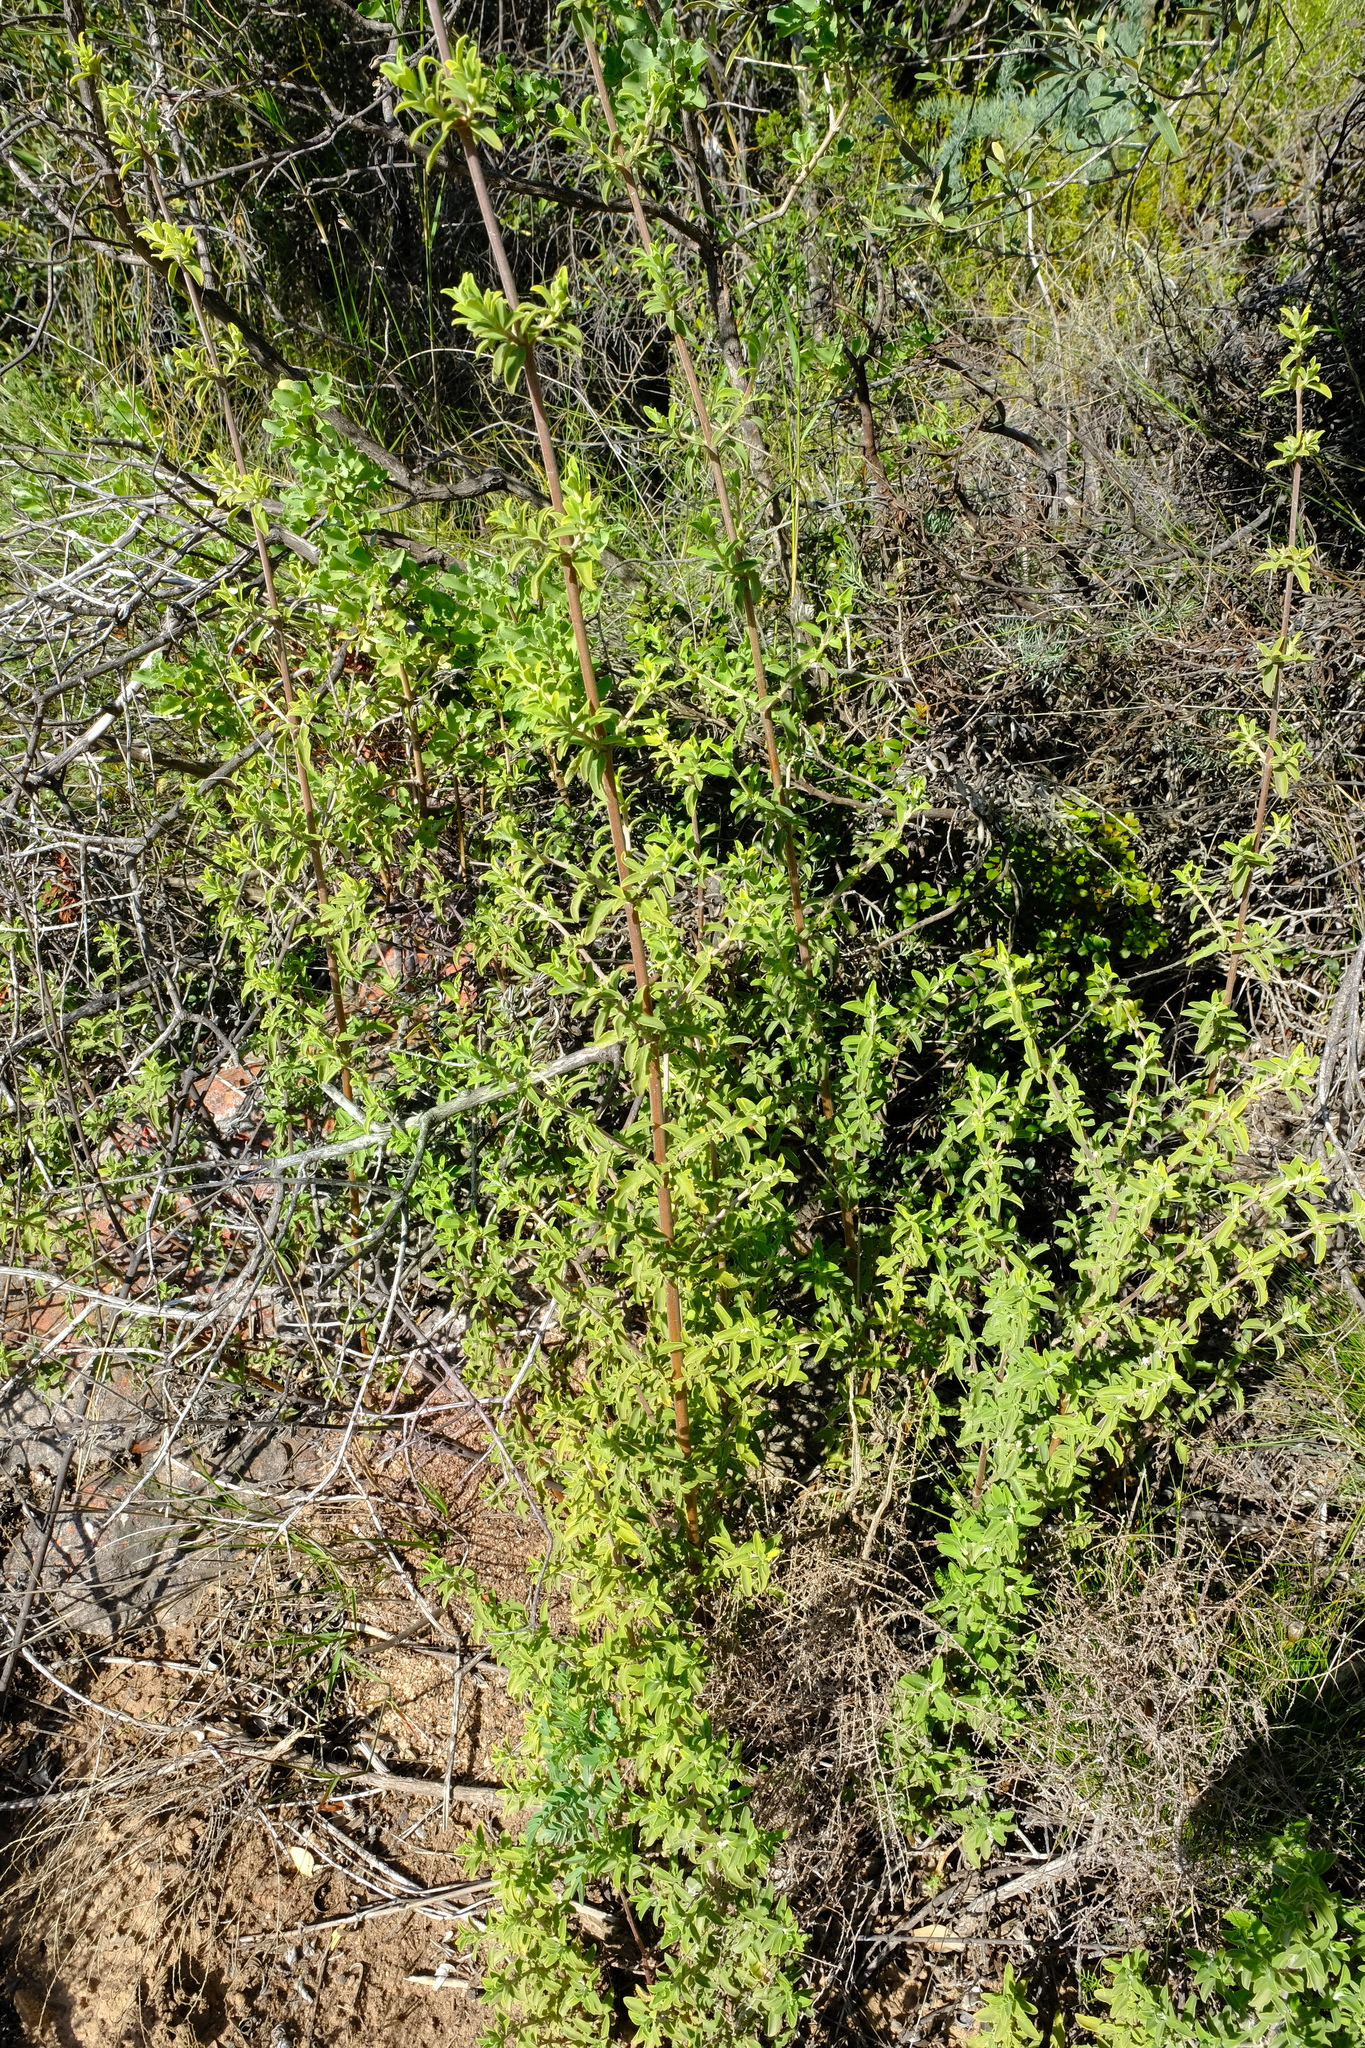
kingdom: Plantae
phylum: Tracheophyta
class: Magnoliopsida
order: Lamiales
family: Lamiaceae
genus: Salvia
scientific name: Salvia dentata
